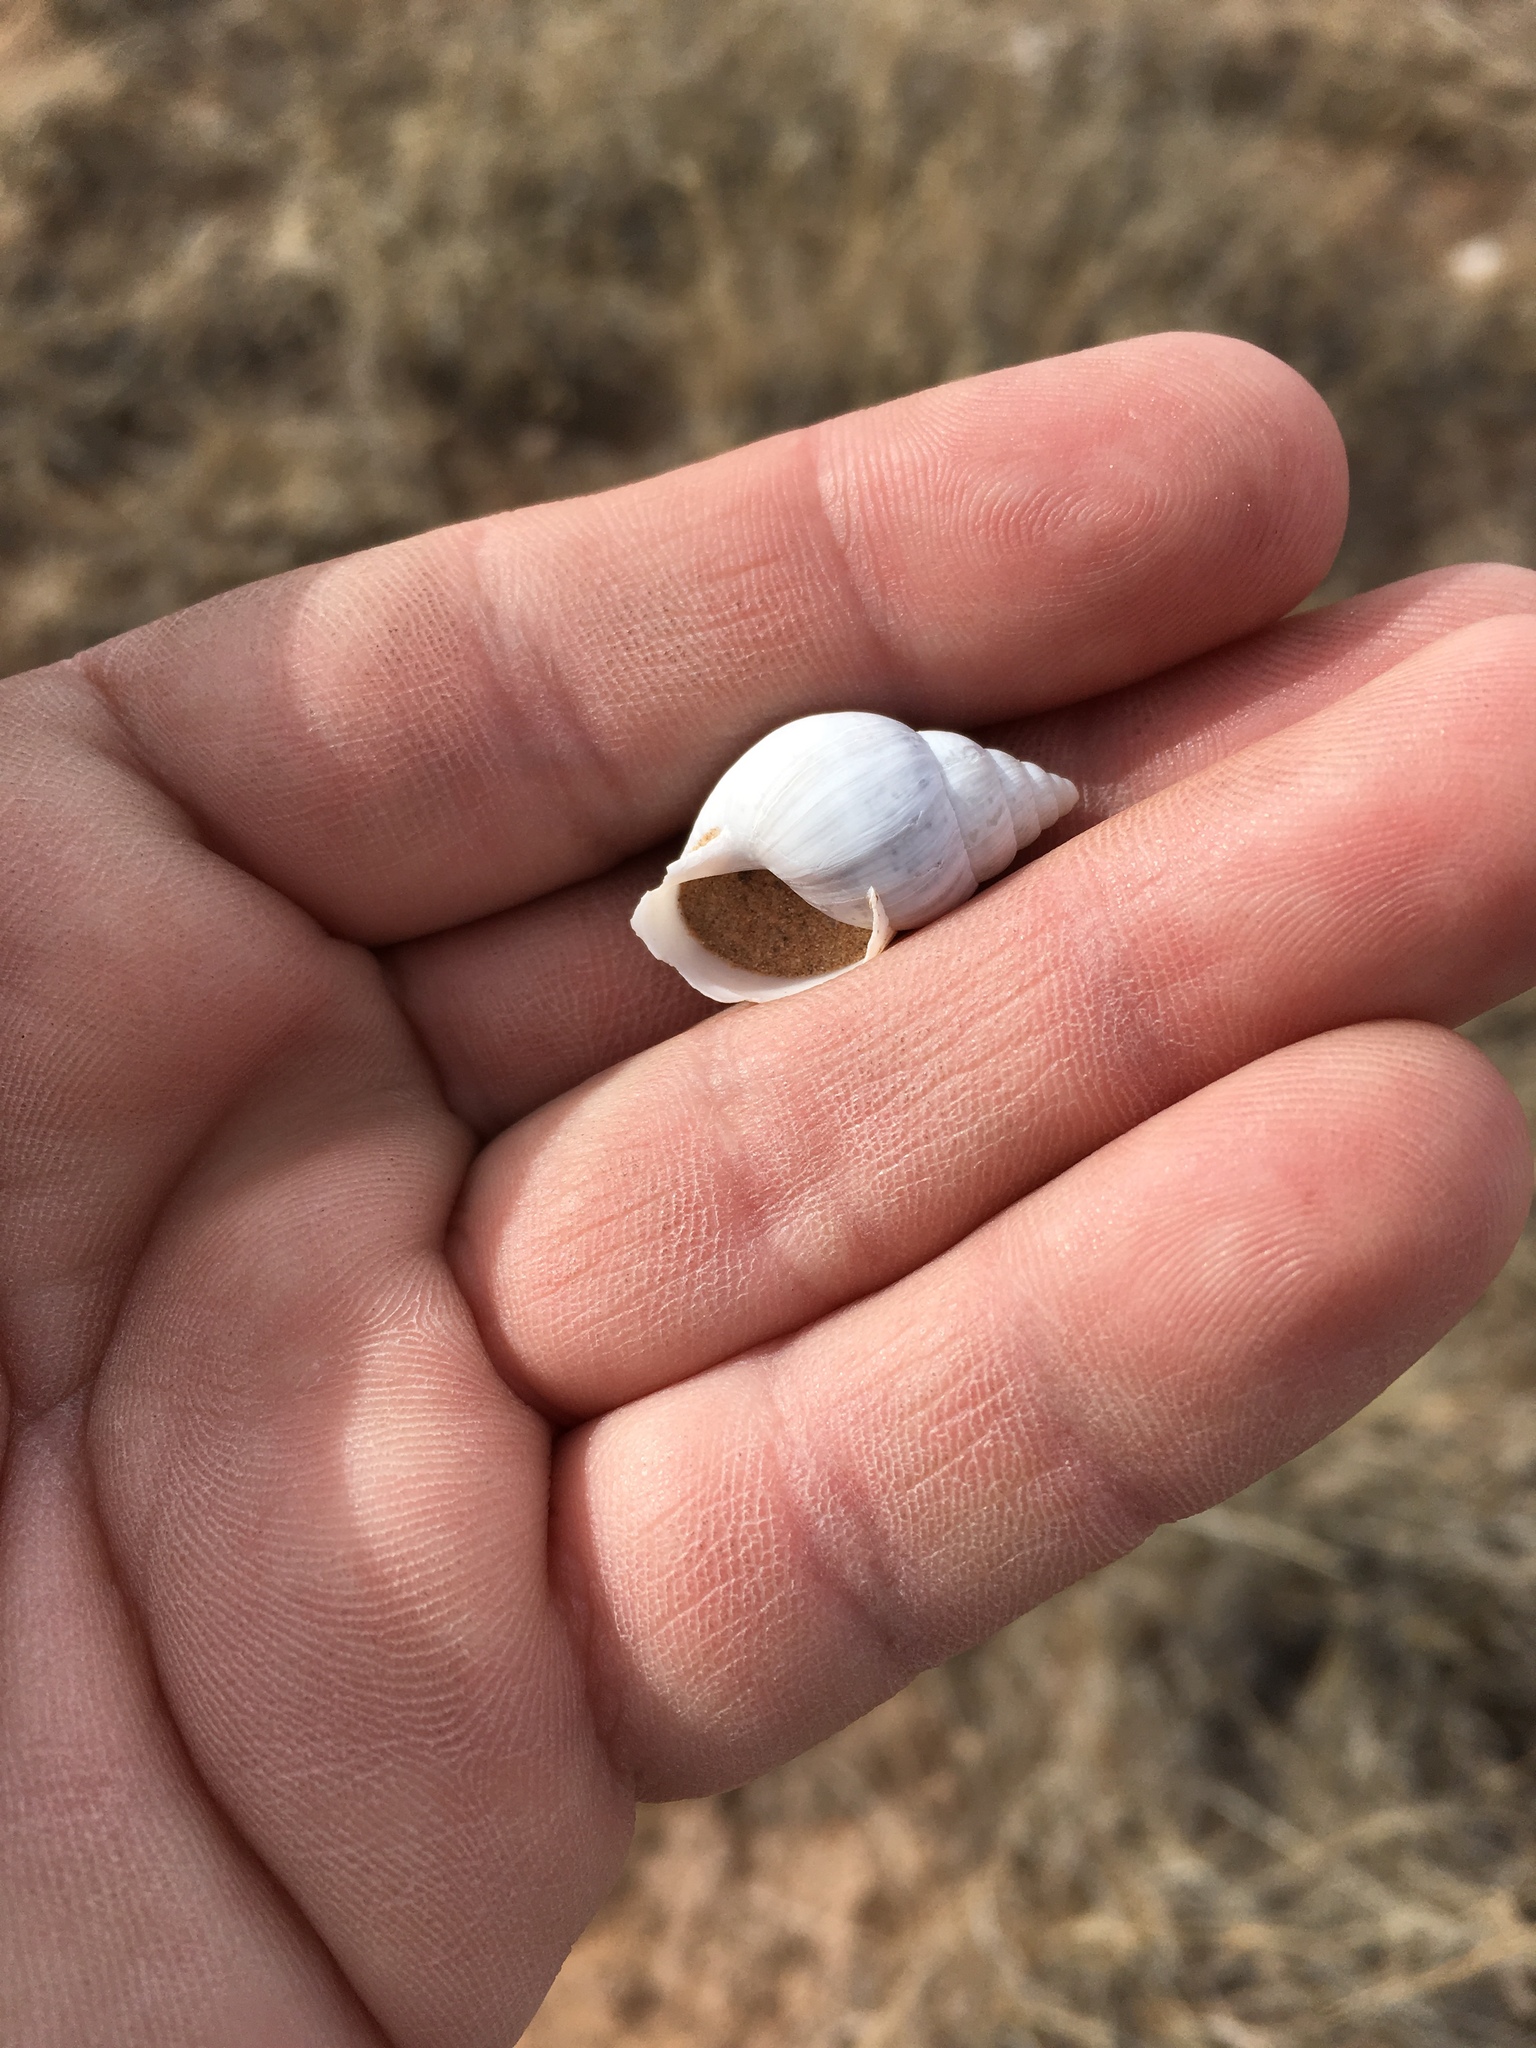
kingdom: Animalia
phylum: Mollusca
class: Gastropoda
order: Stylommatophora
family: Bulimulidae
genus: Rabdotus
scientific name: Rabdotus dealbatus
